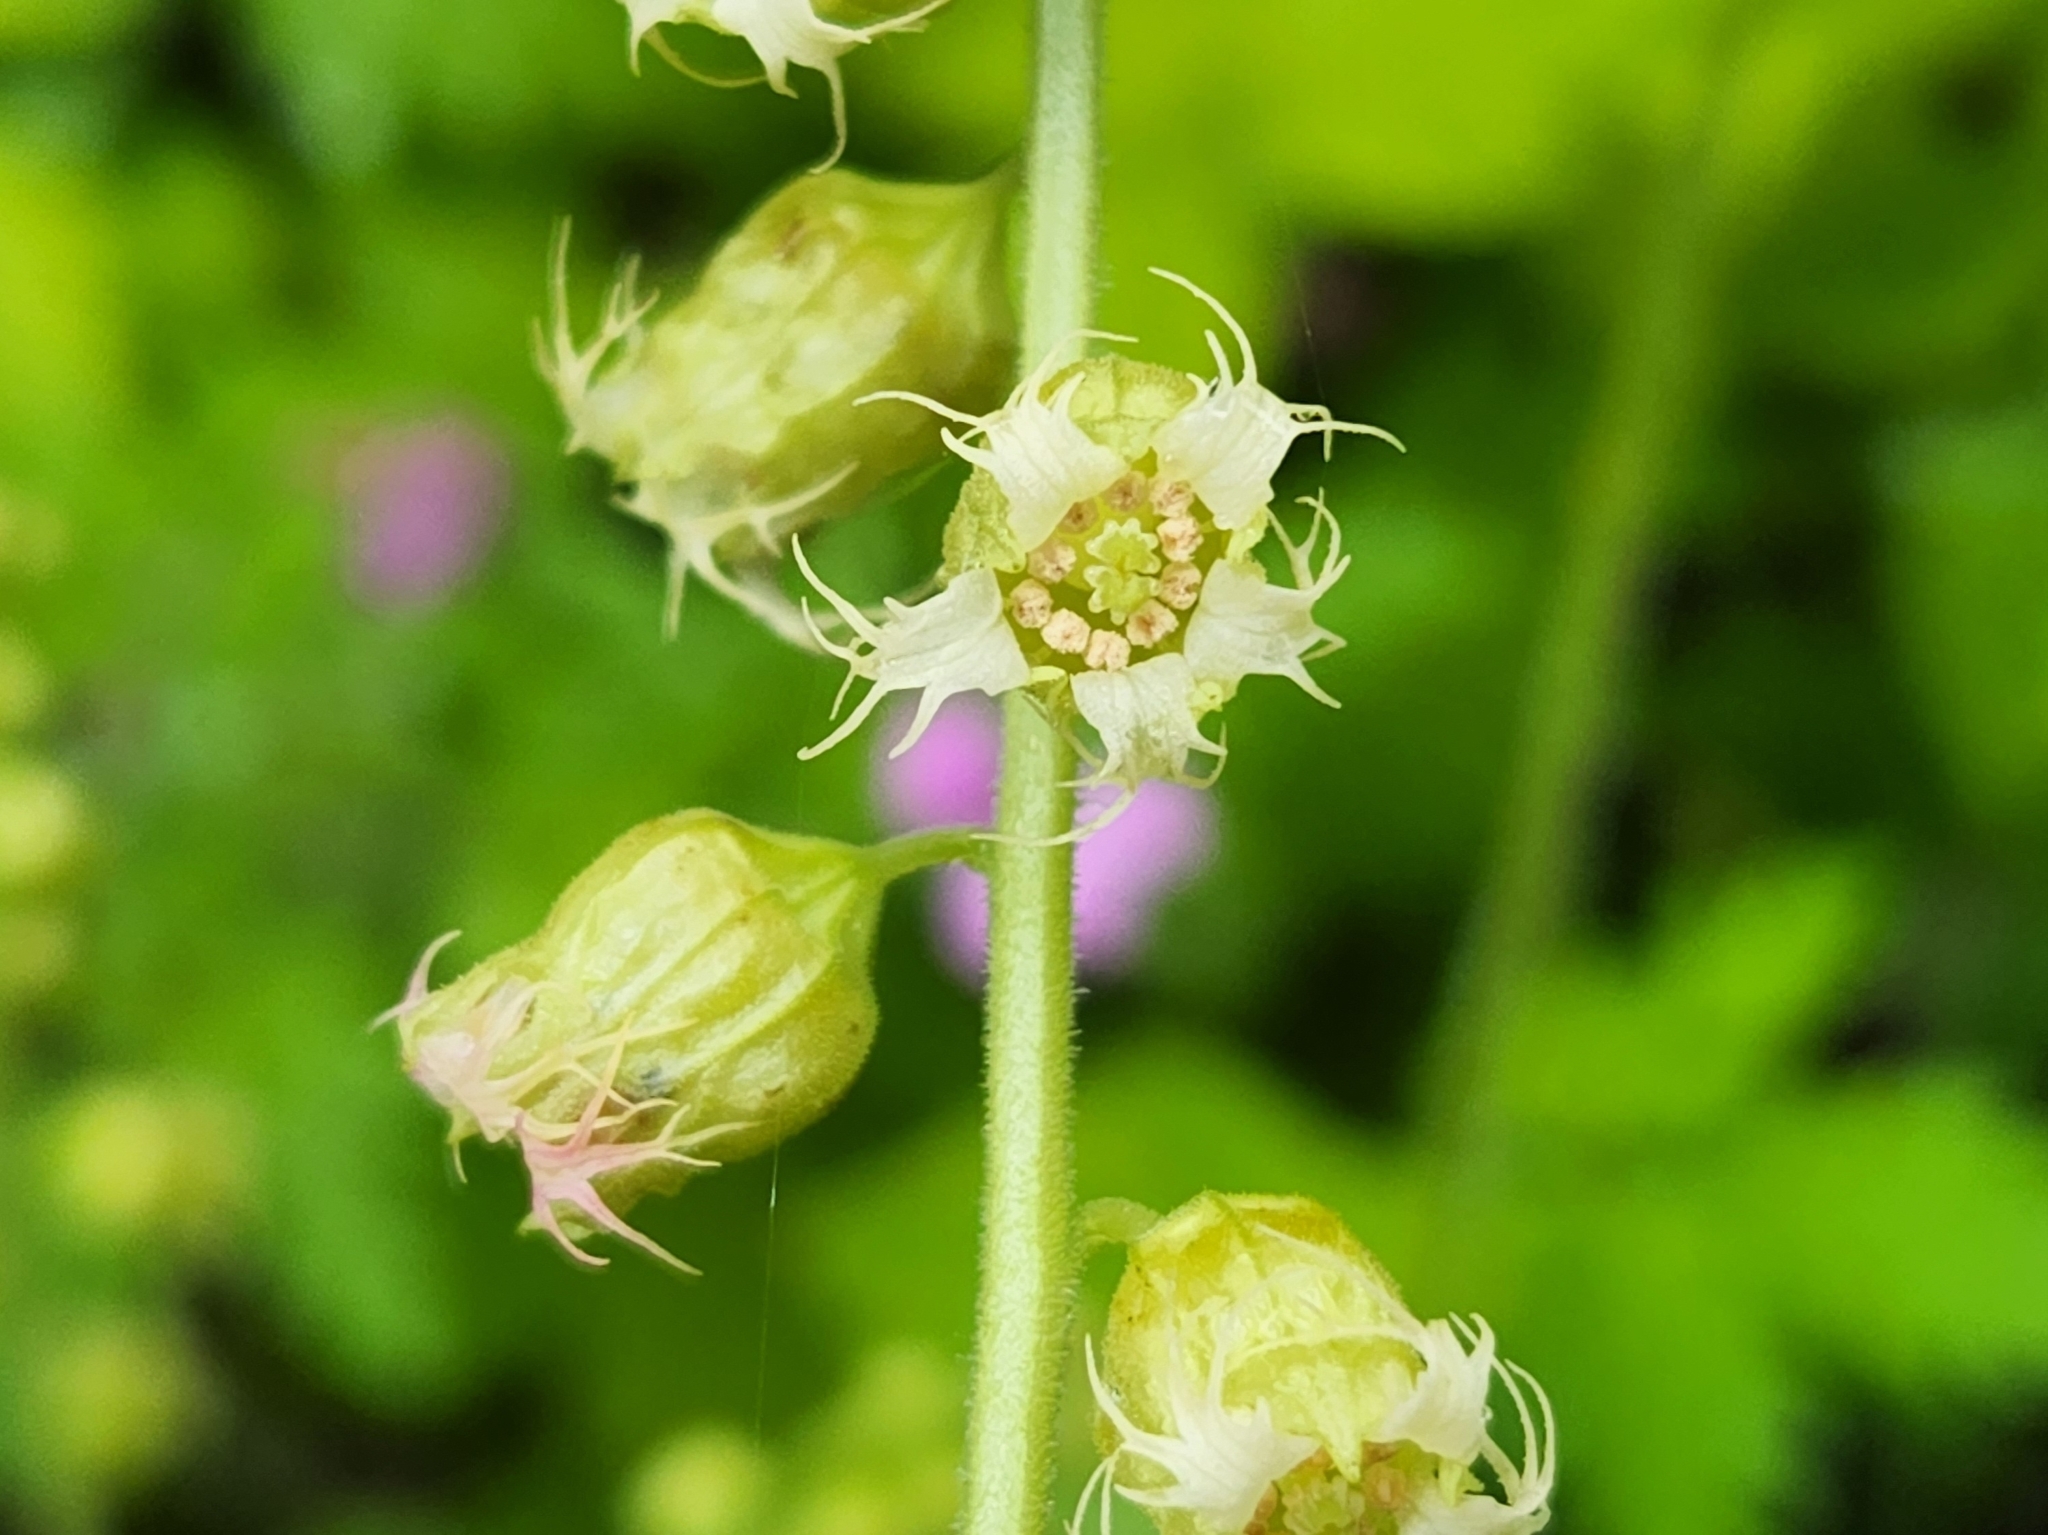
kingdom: Plantae
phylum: Tracheophyta
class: Magnoliopsida
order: Saxifragales
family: Saxifragaceae
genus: Tellima
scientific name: Tellima grandiflora
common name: Fringecups
